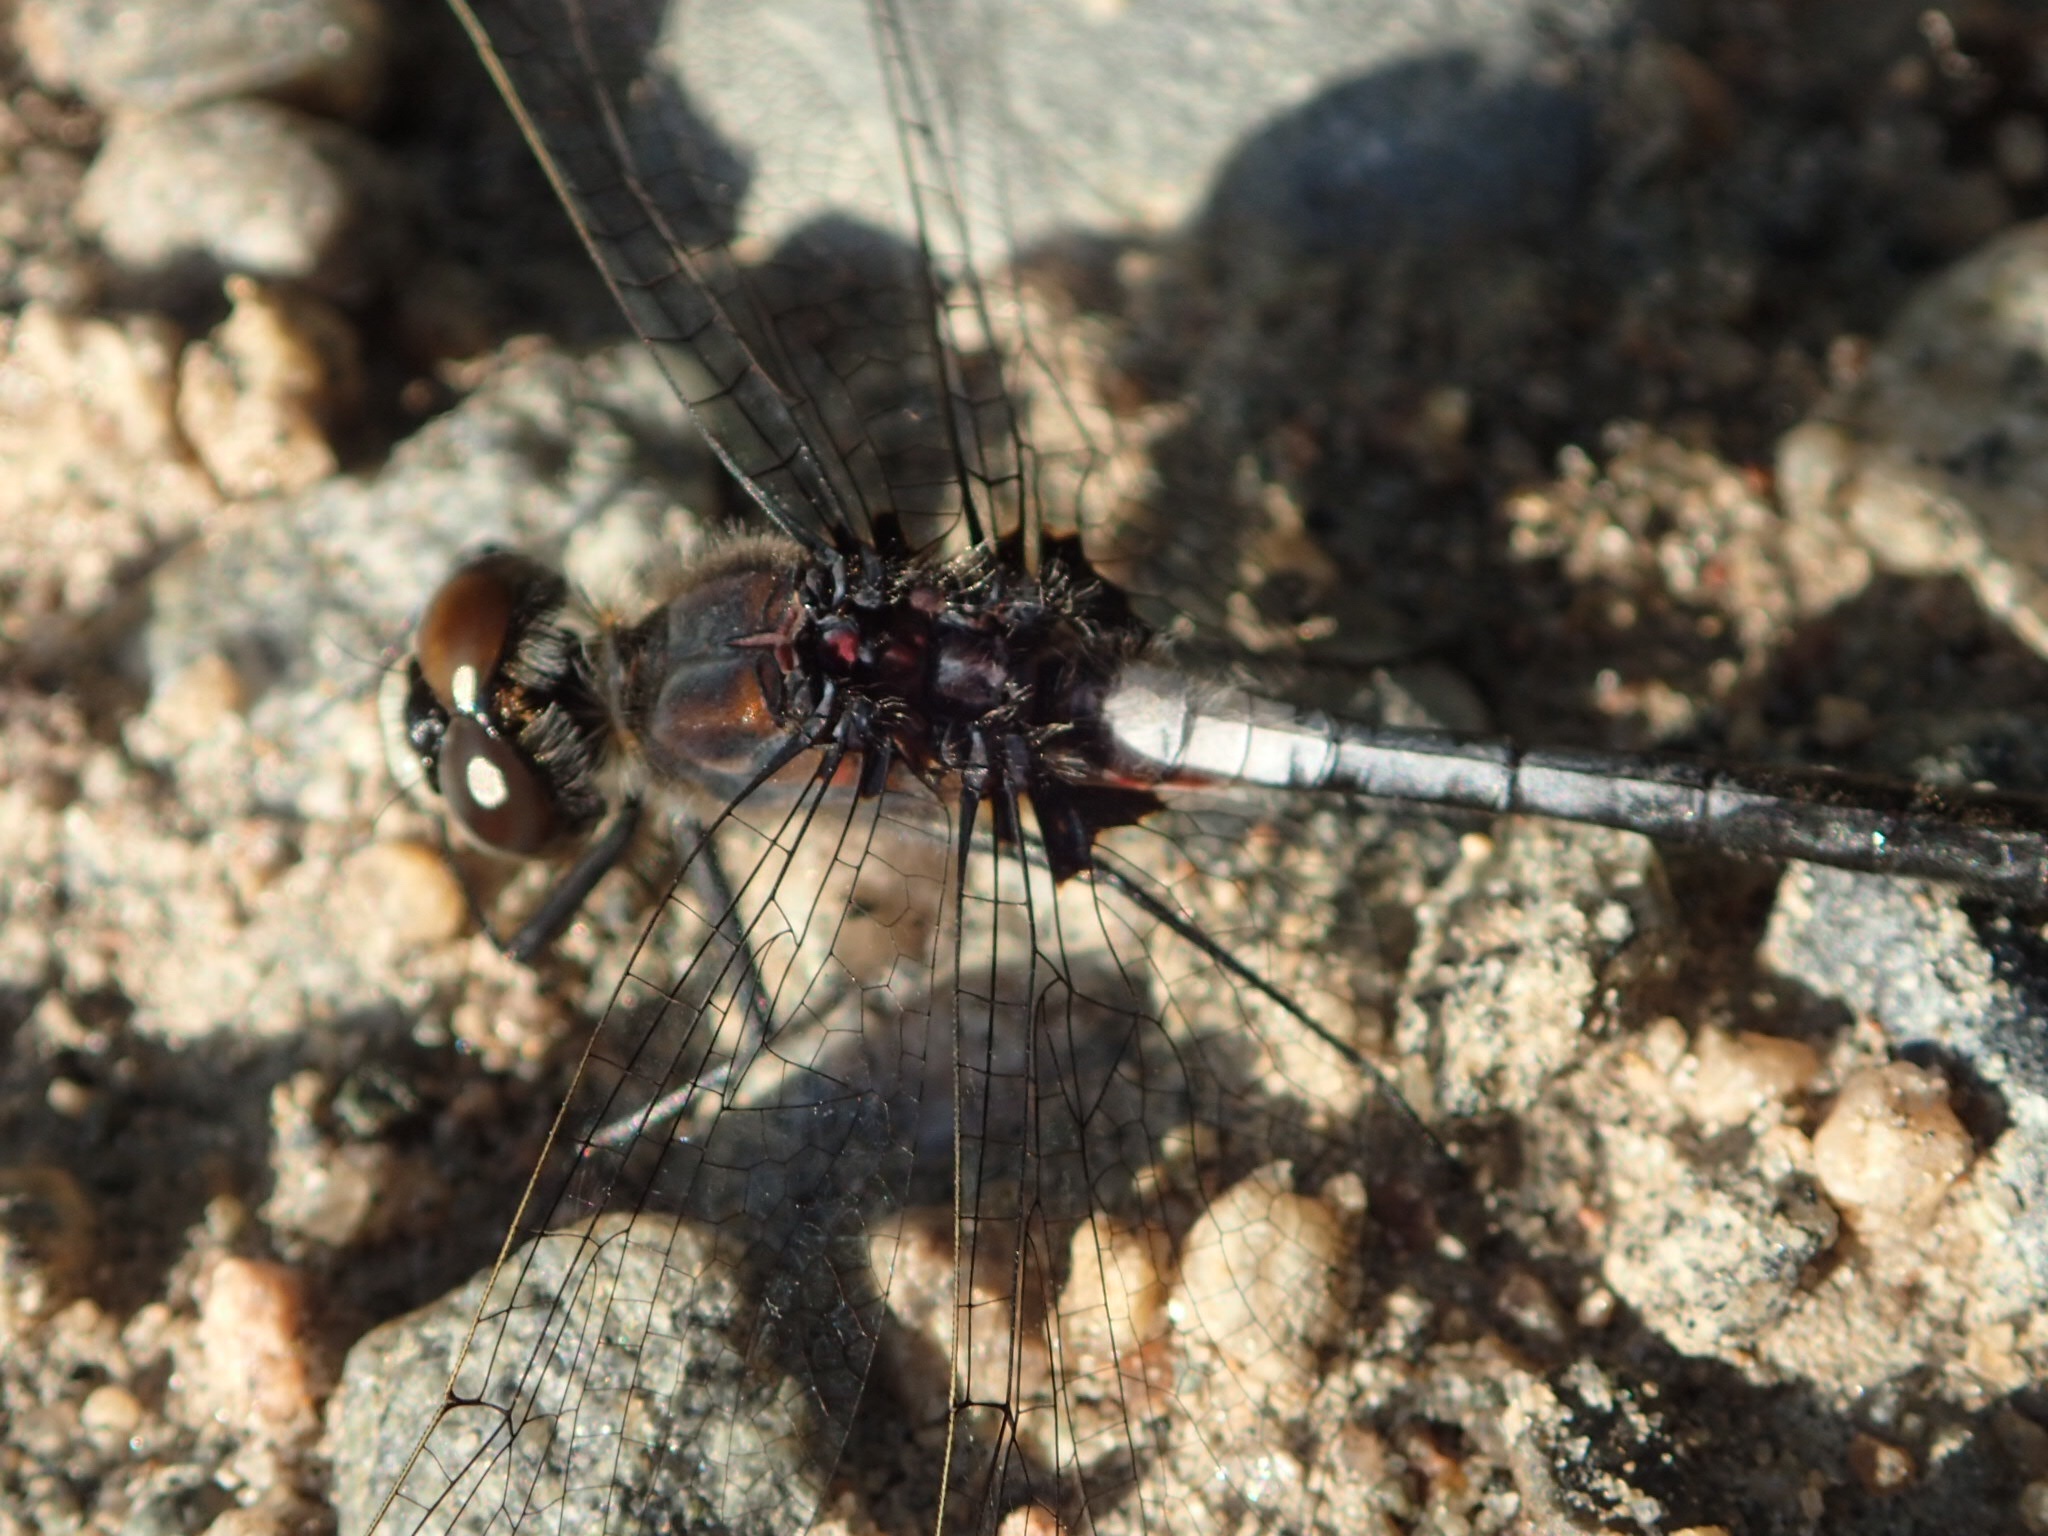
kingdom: Animalia
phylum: Arthropoda
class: Insecta
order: Odonata
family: Libellulidae
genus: Leucorrhinia
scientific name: Leucorrhinia proxima
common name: Belted whiteface
